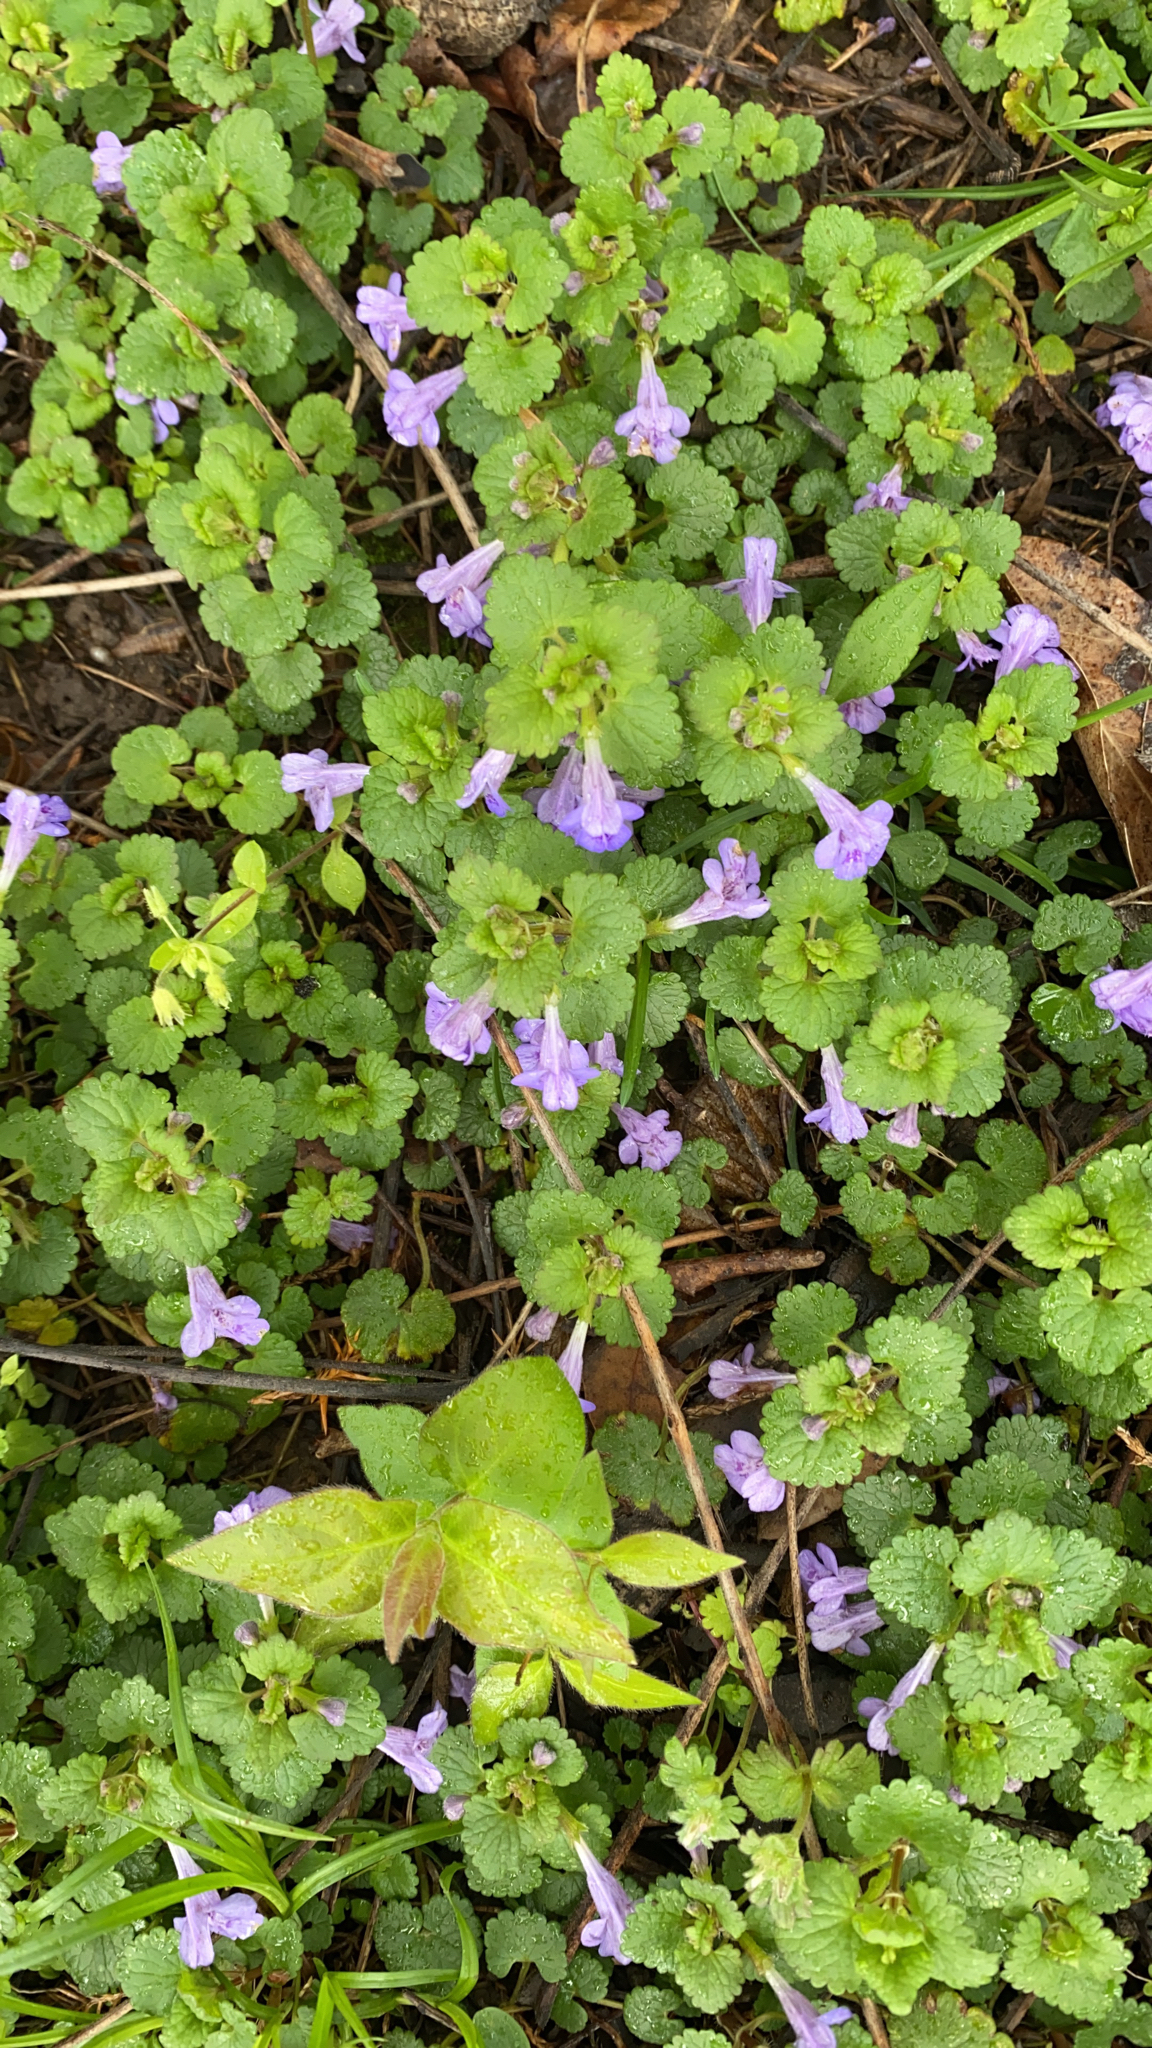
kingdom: Plantae
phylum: Tracheophyta
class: Magnoliopsida
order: Lamiales
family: Lamiaceae
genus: Glechoma
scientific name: Glechoma hederacea
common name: Ground ivy
